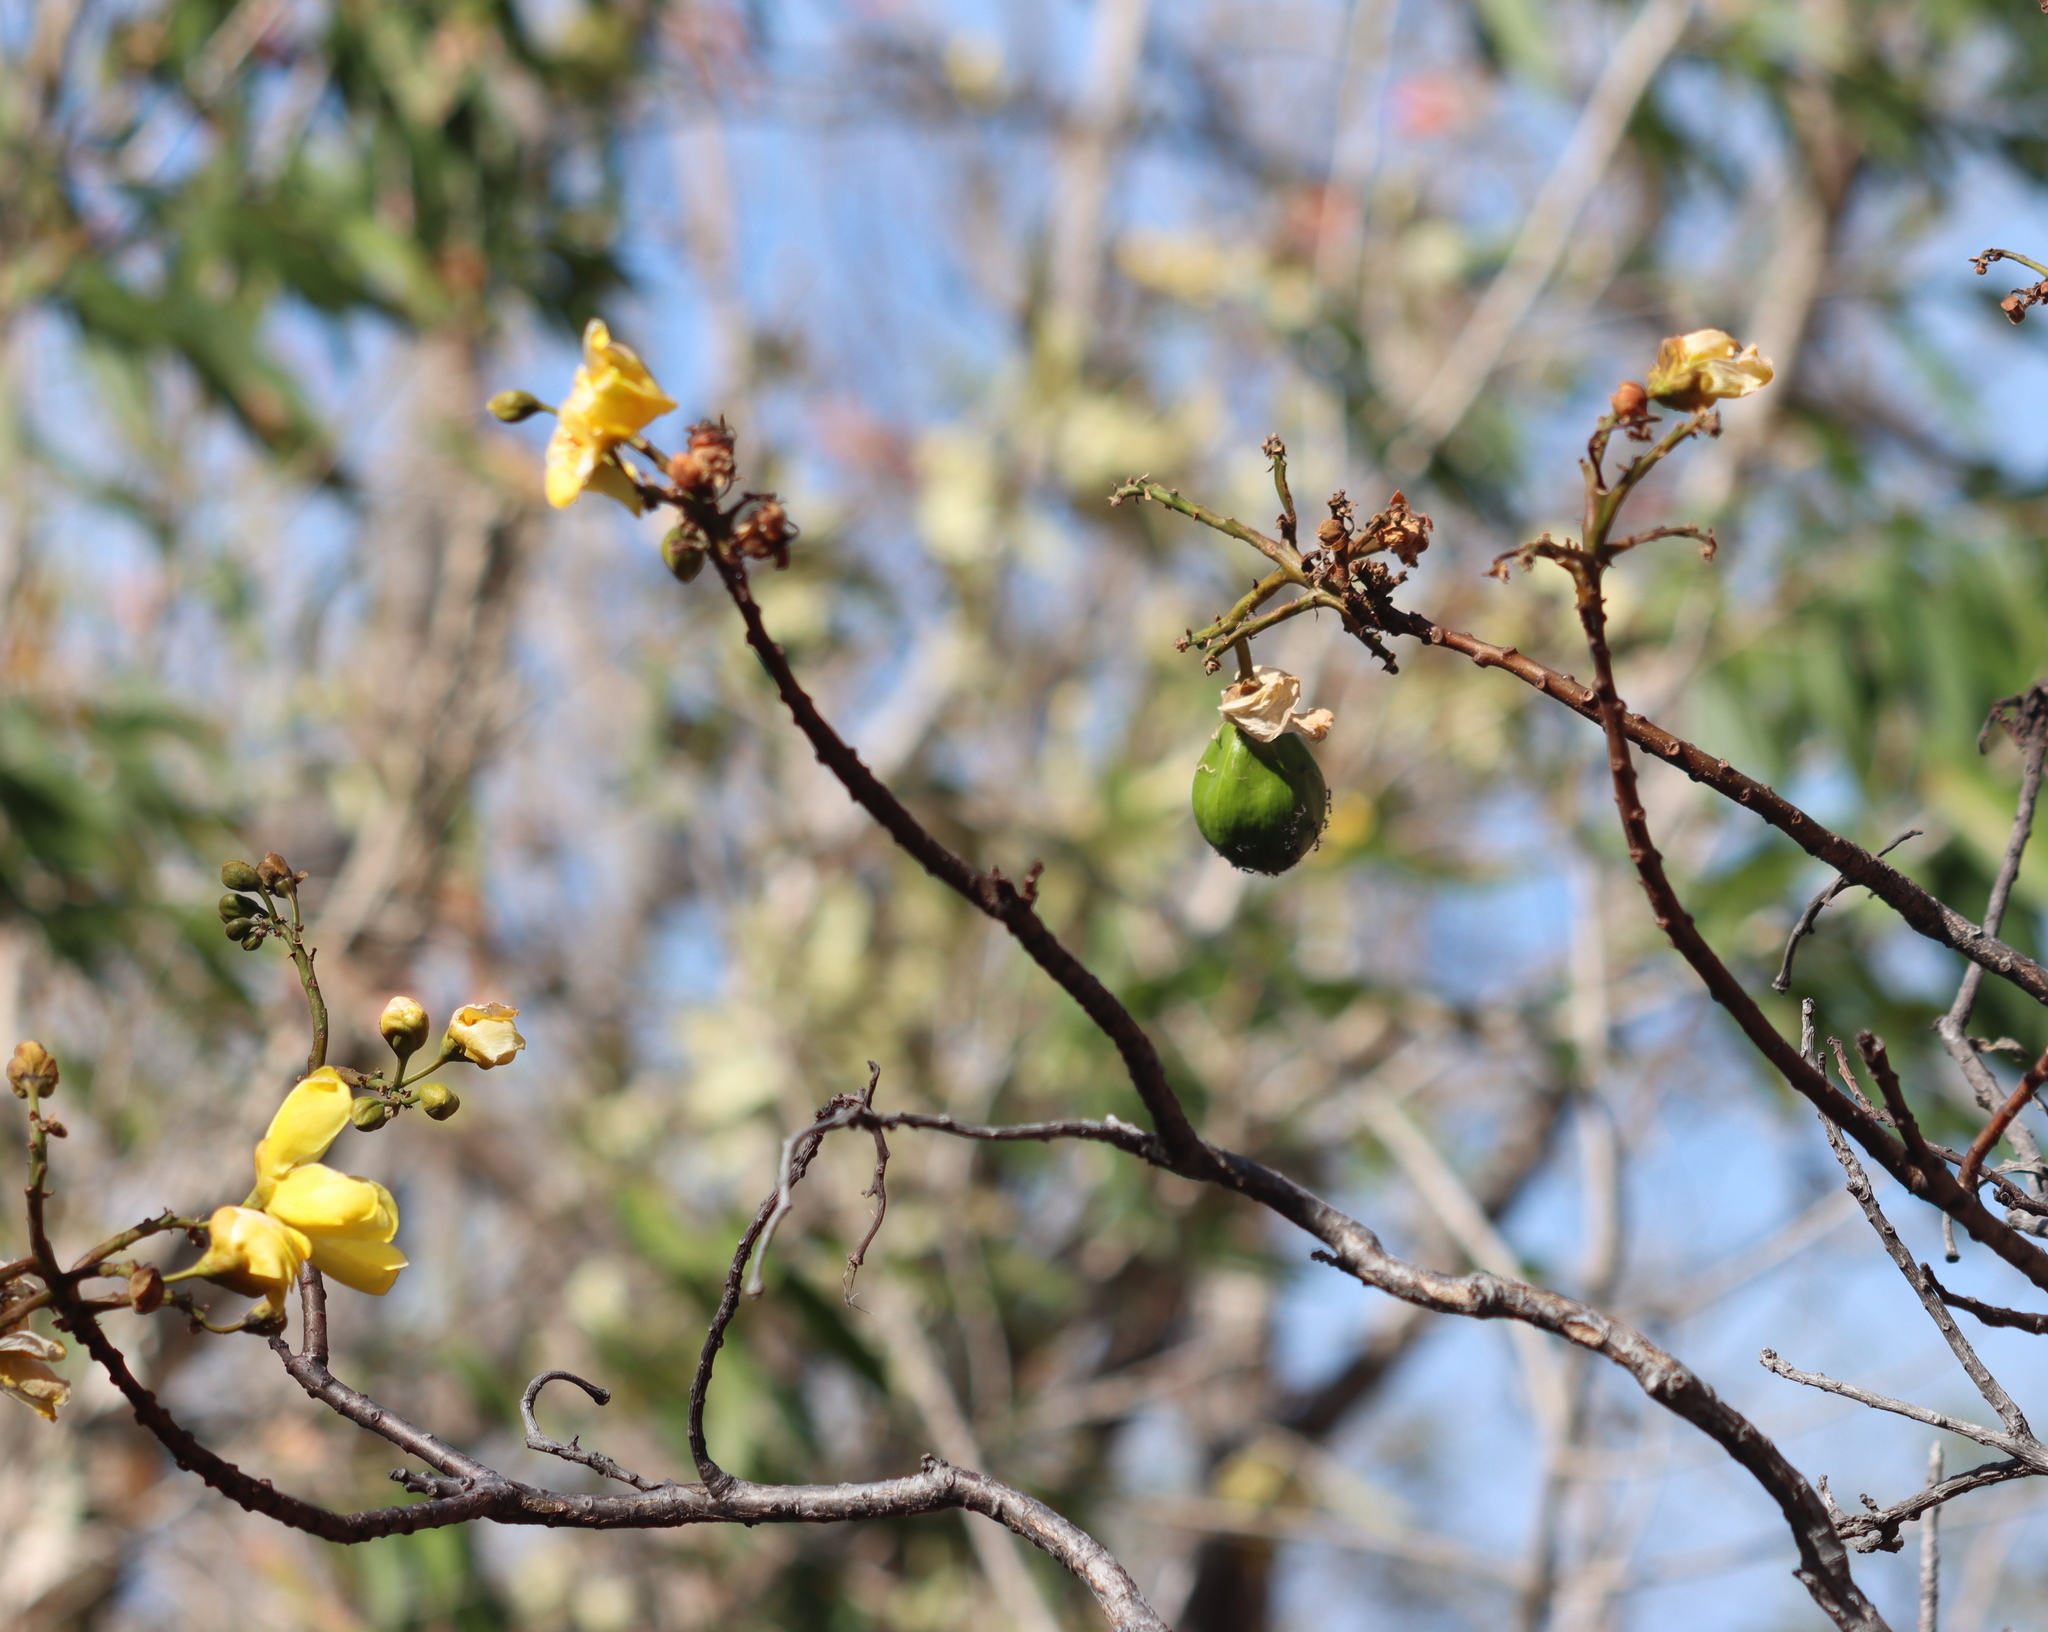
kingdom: Plantae
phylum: Tracheophyta
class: Magnoliopsida
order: Malvales
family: Cochlospermaceae
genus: Cochlospermum
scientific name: Cochlospermum gillivraei
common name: Cottontree
